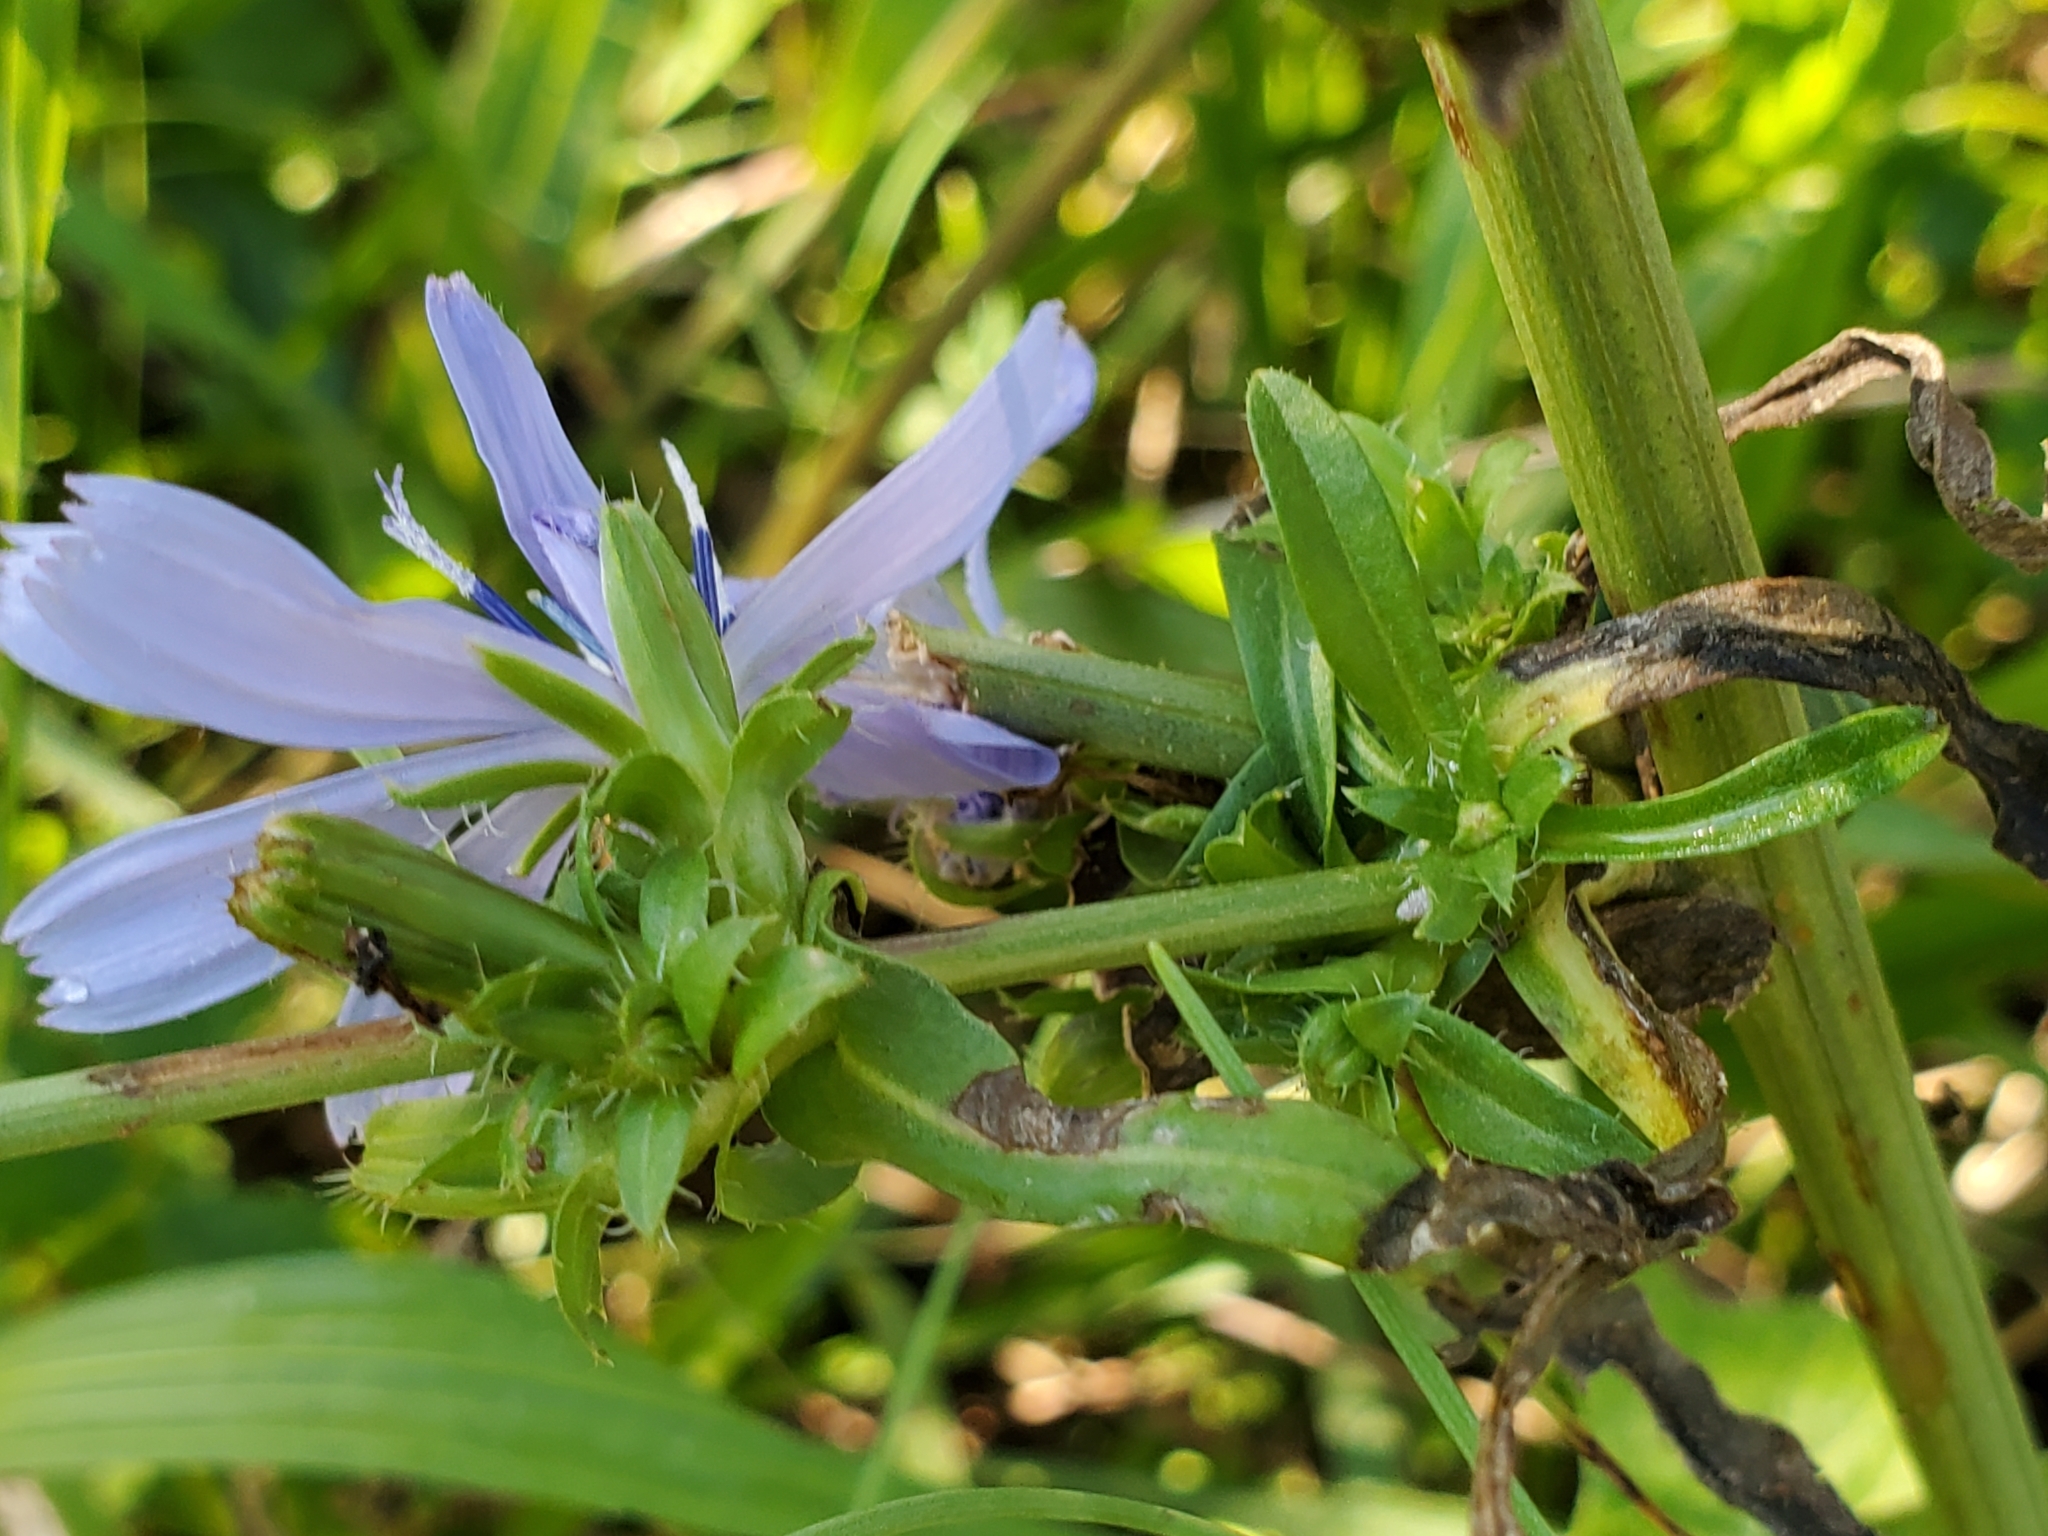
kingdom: Plantae
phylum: Tracheophyta
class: Magnoliopsida
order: Asterales
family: Asteraceae
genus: Cichorium
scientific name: Cichorium intybus
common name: Chicory
